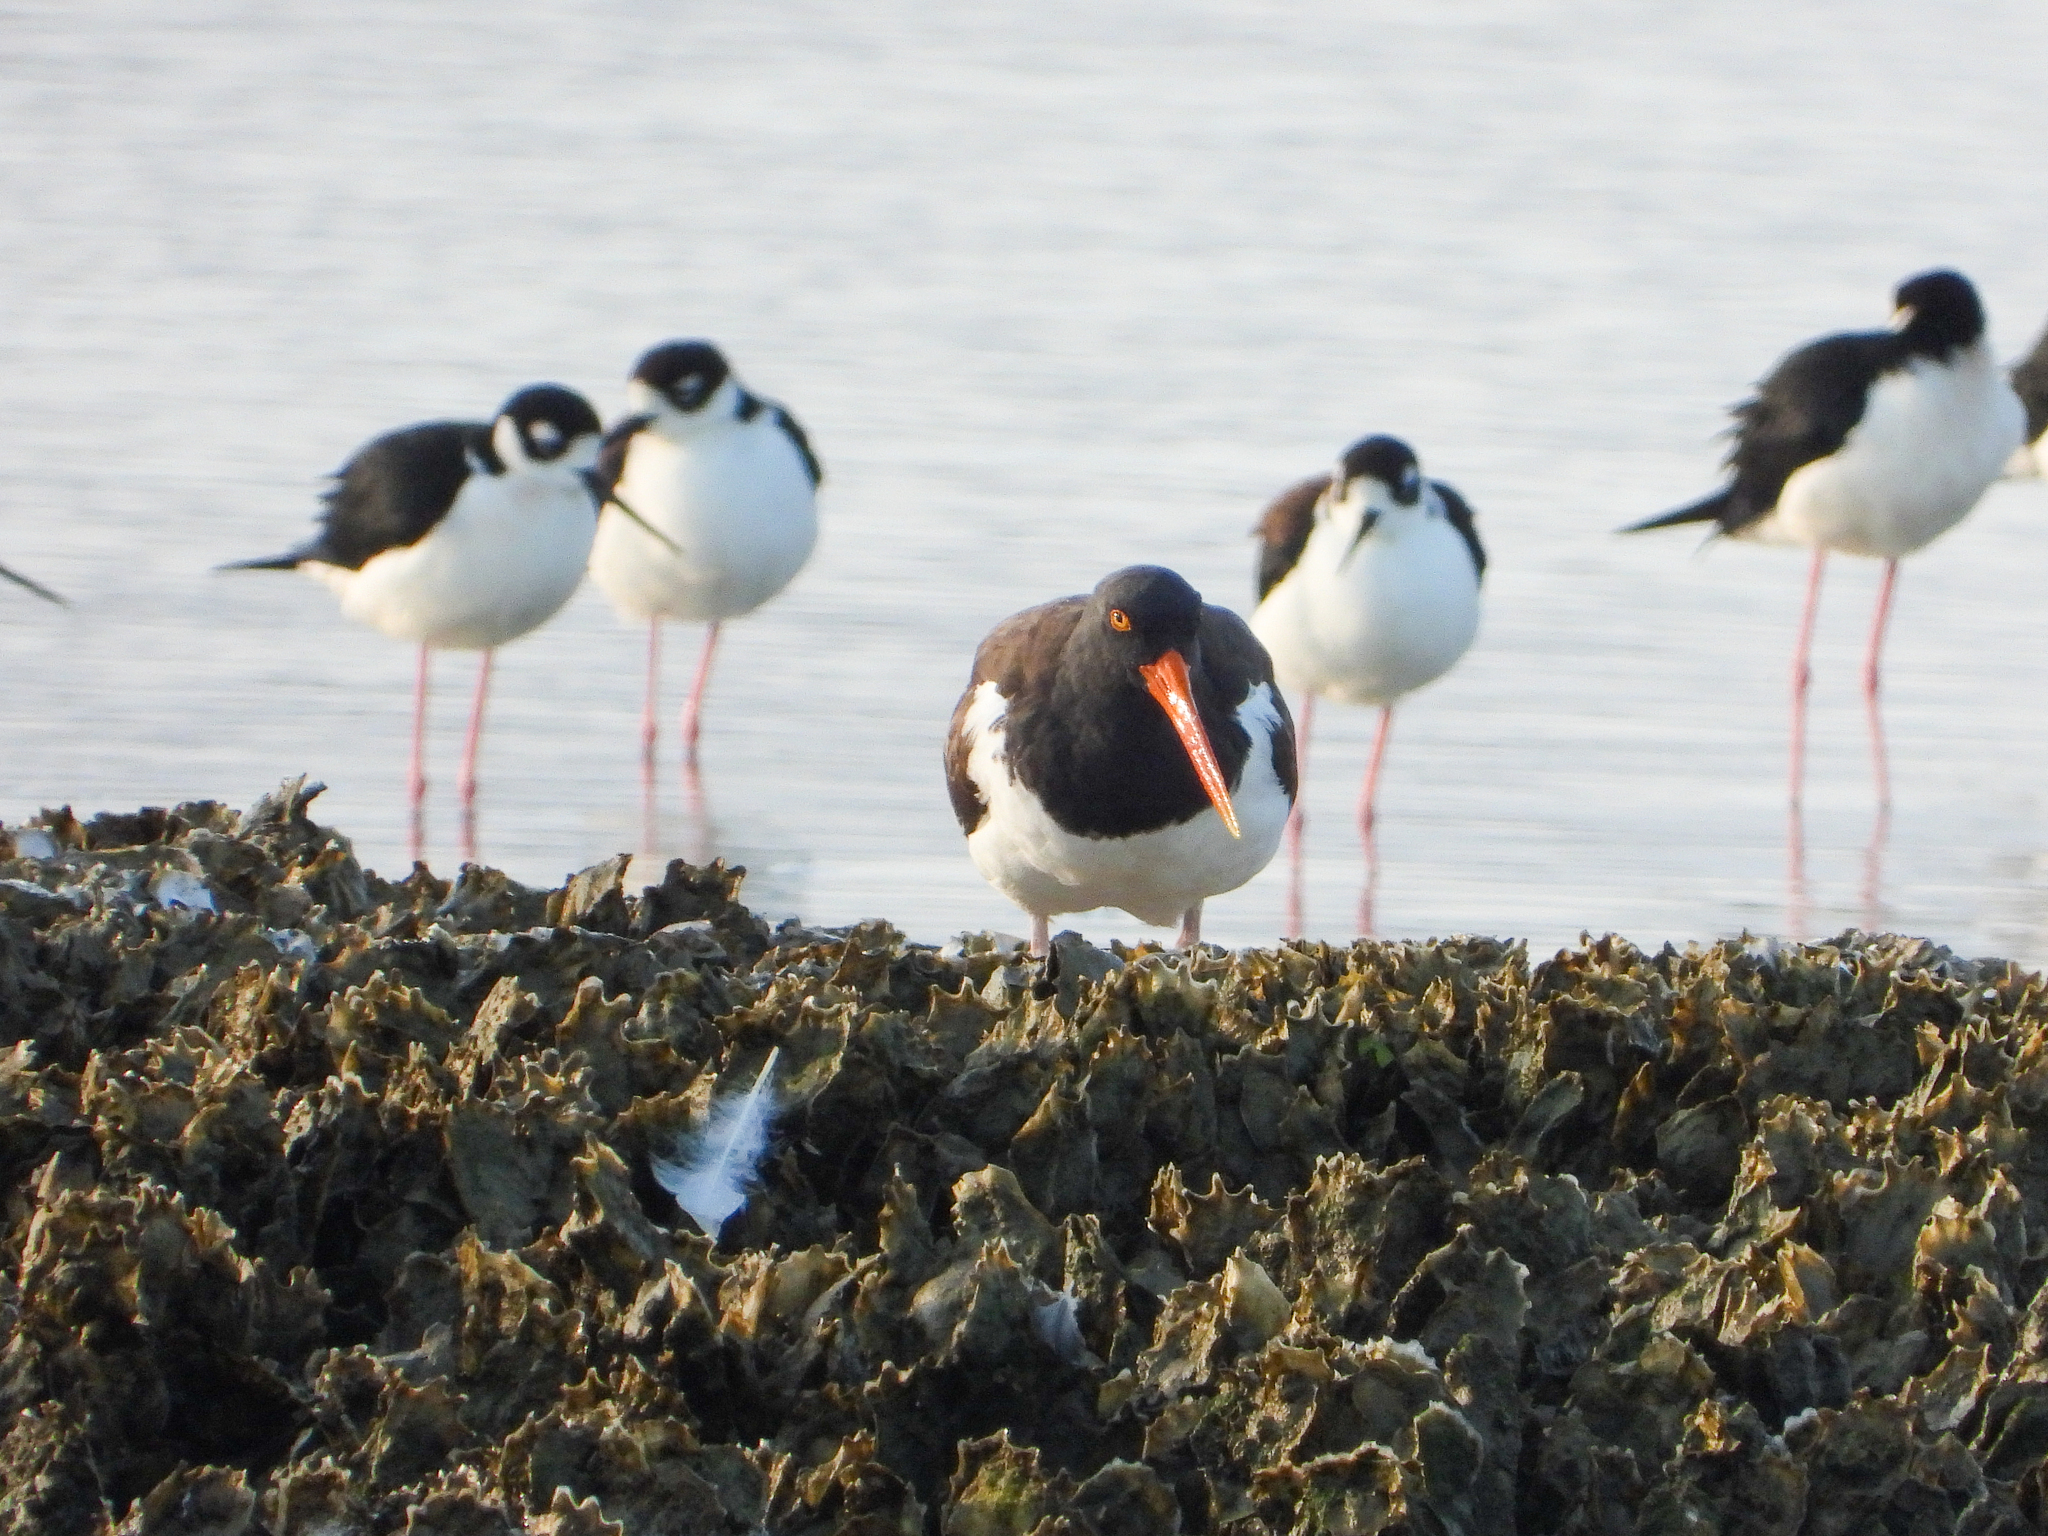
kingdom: Animalia
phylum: Chordata
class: Aves
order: Charadriiformes
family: Haematopodidae
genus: Haematopus
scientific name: Haematopus palliatus
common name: American oystercatcher
